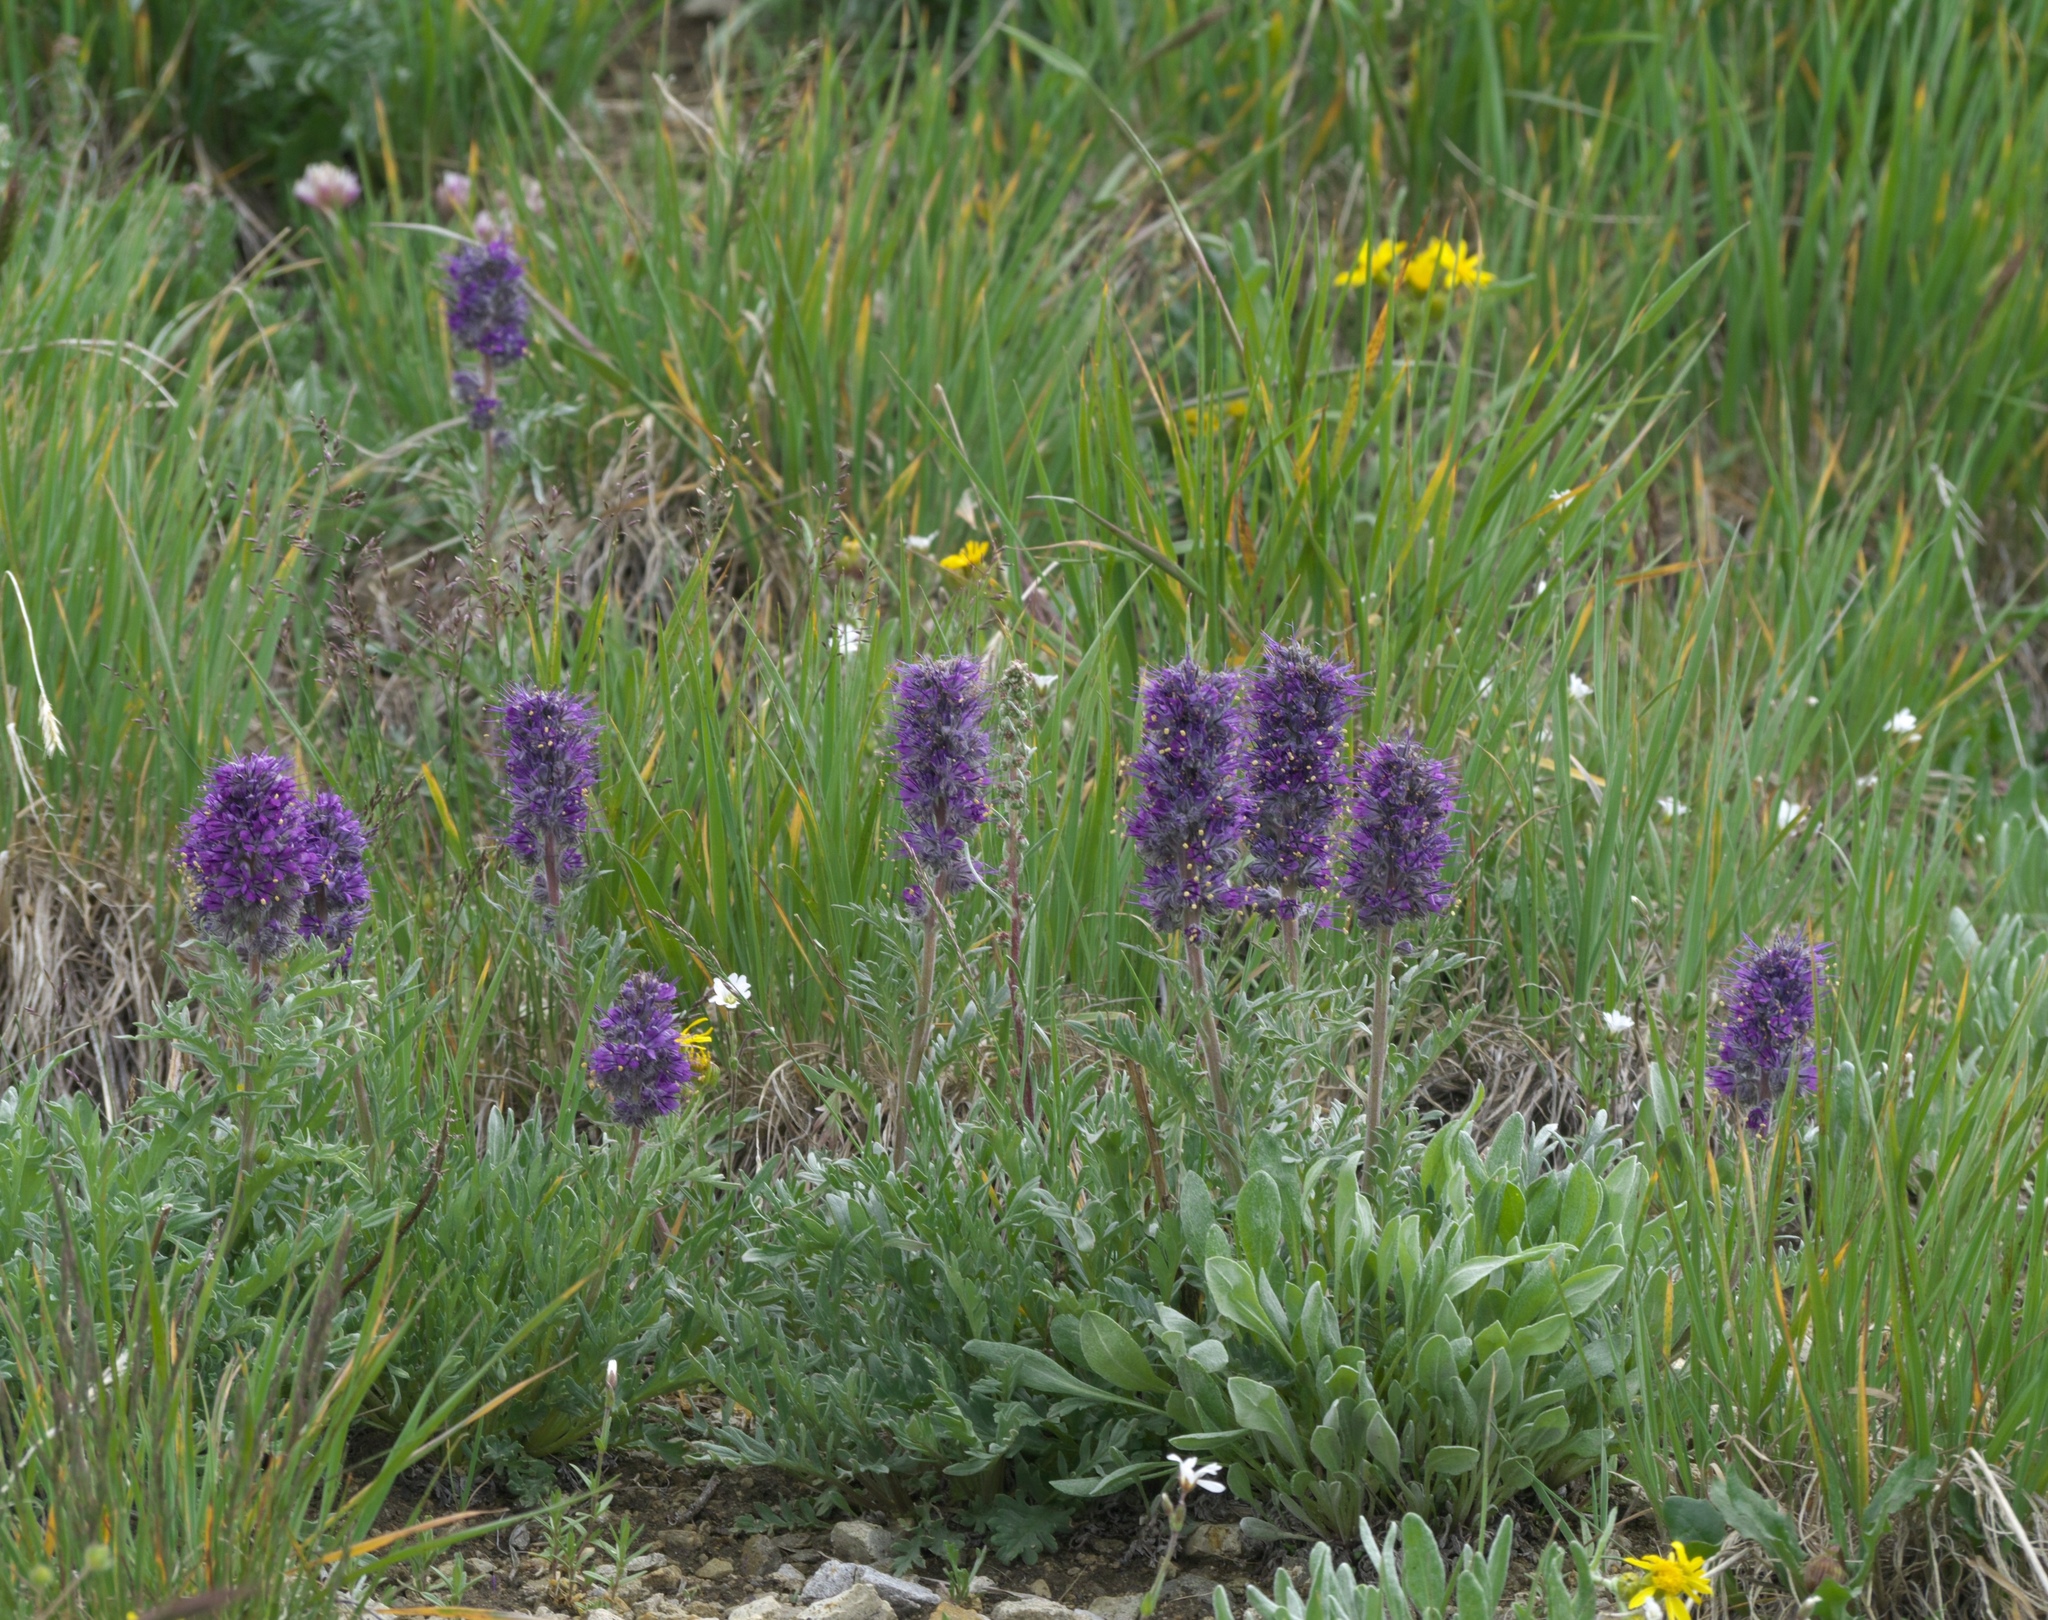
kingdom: Plantae
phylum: Tracheophyta
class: Magnoliopsida
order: Boraginales
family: Hydrophyllaceae
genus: Phacelia
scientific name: Phacelia sericea
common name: Silky phacelia
